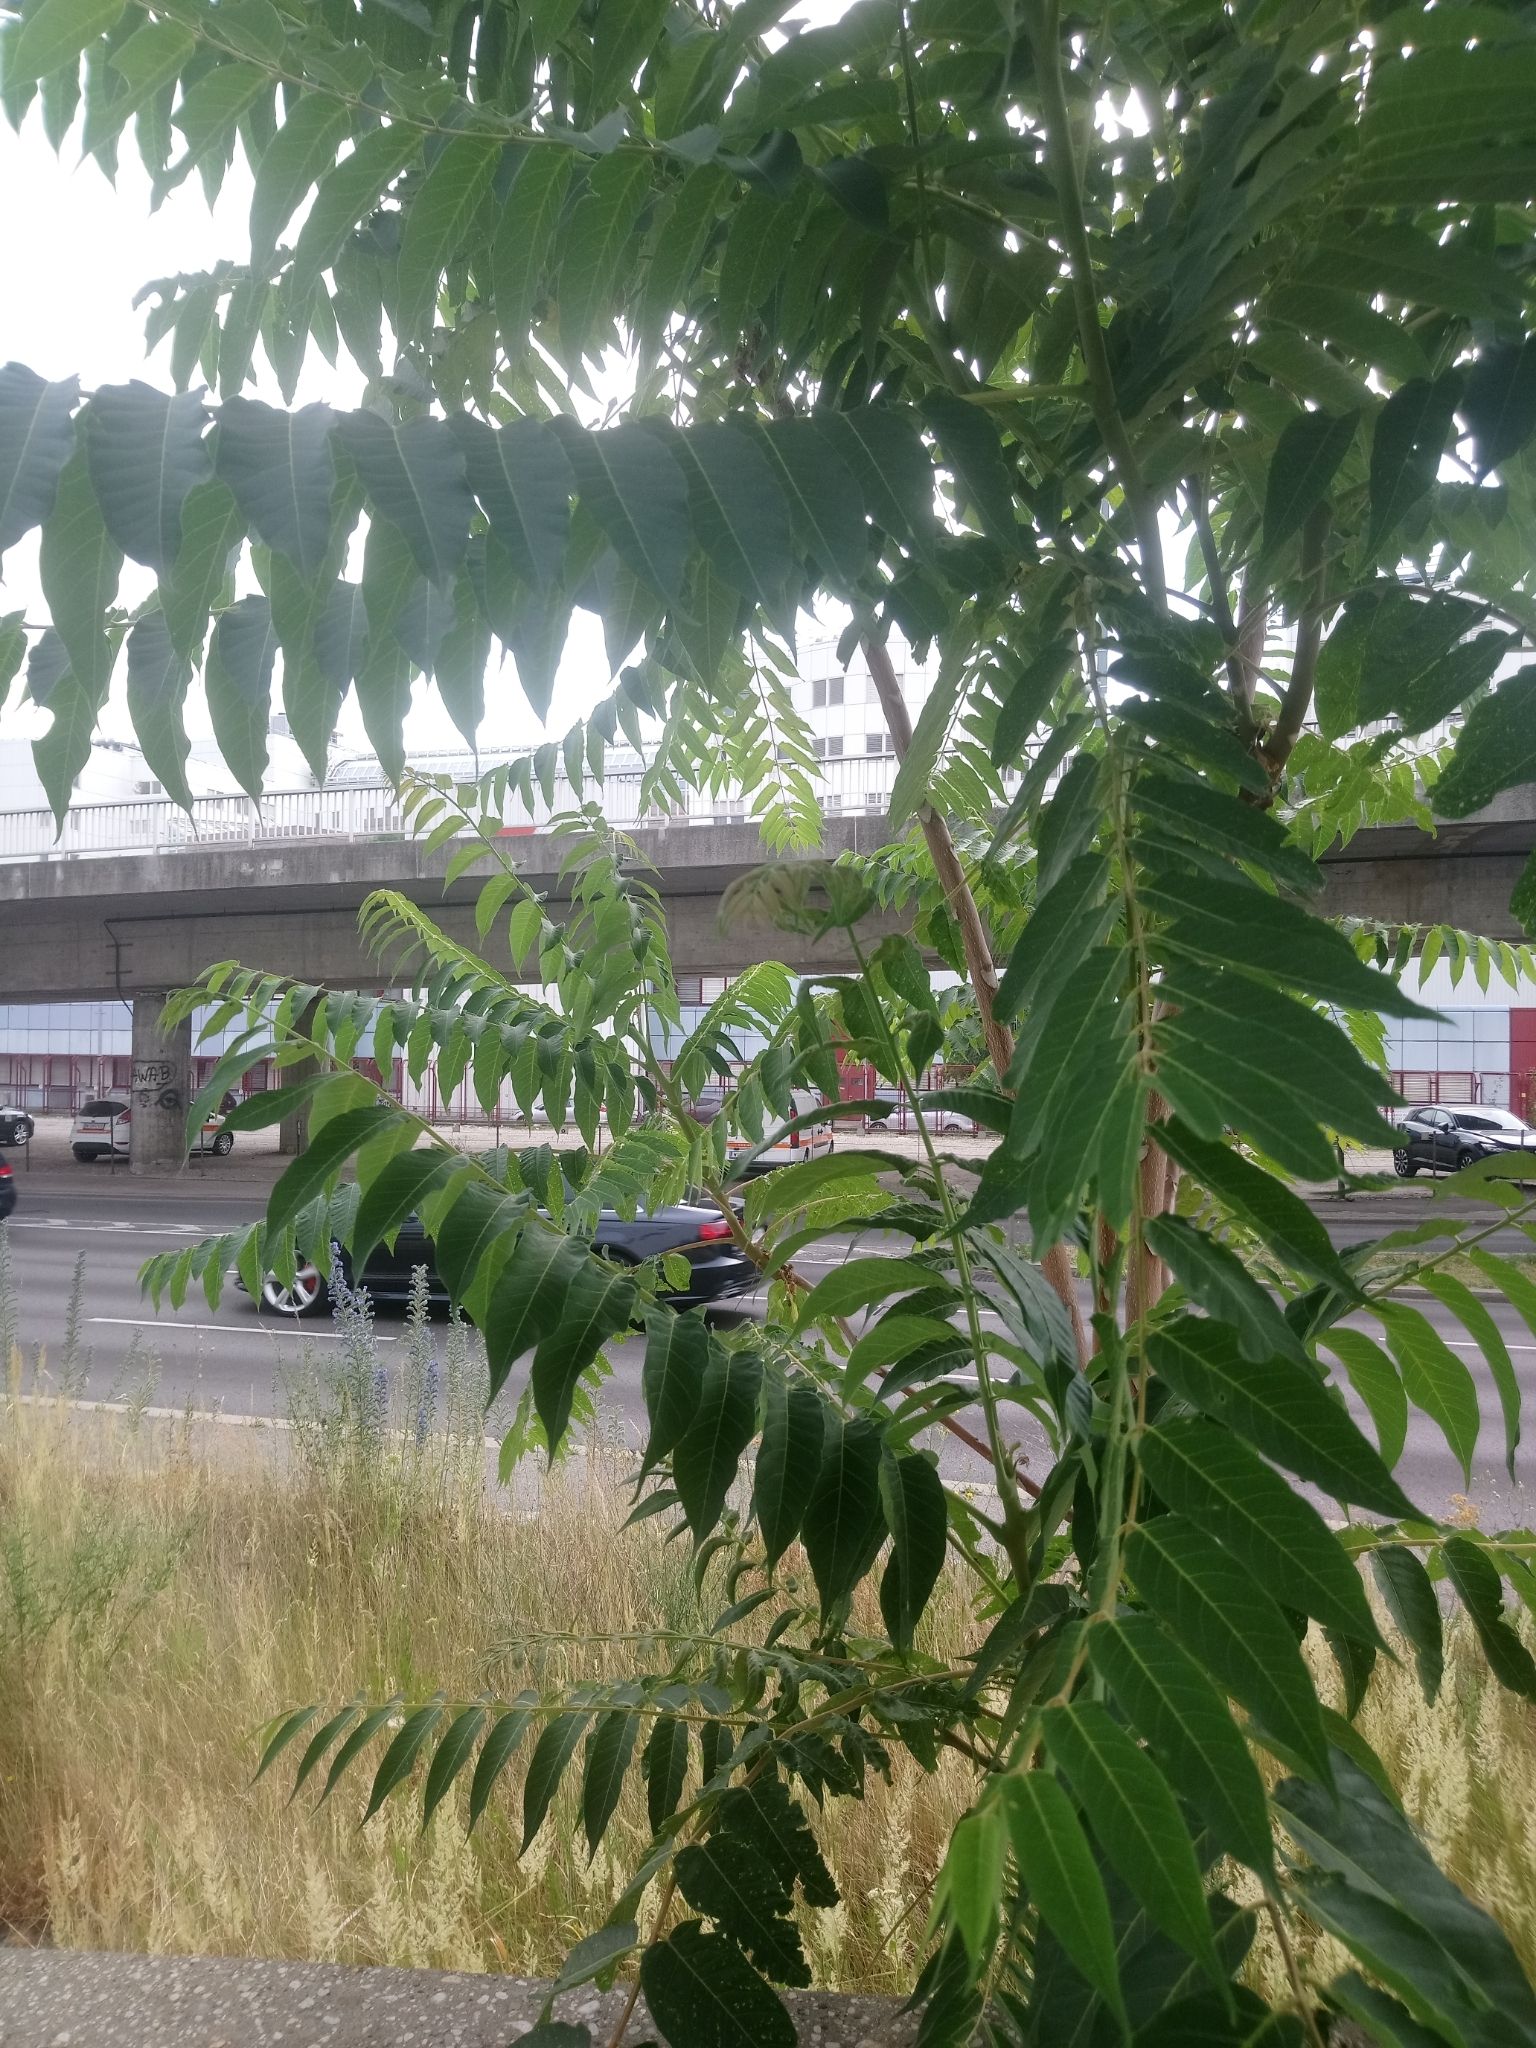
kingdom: Plantae
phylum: Tracheophyta
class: Magnoliopsida
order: Sapindales
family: Simaroubaceae
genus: Ailanthus
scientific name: Ailanthus altissima
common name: Tree-of-heaven
